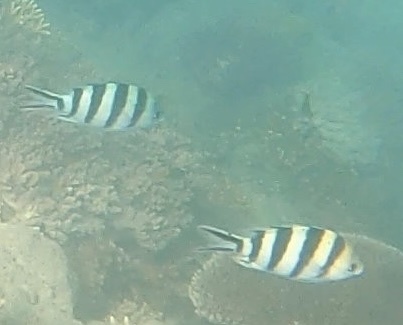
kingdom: Animalia
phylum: Chordata
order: Perciformes
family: Pomacentridae
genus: Abudefduf
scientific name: Abudefduf sexfasciatus
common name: Scissortail sergeant
